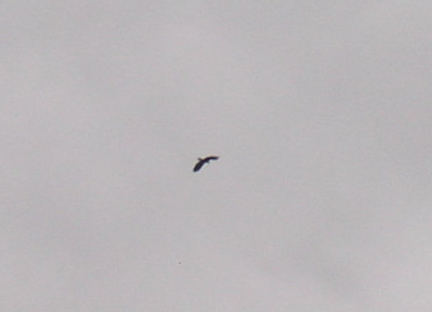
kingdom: Animalia
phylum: Chordata
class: Aves
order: Accipitriformes
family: Accipitridae
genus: Aquila
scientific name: Aquila chrysaetos
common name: Golden eagle
